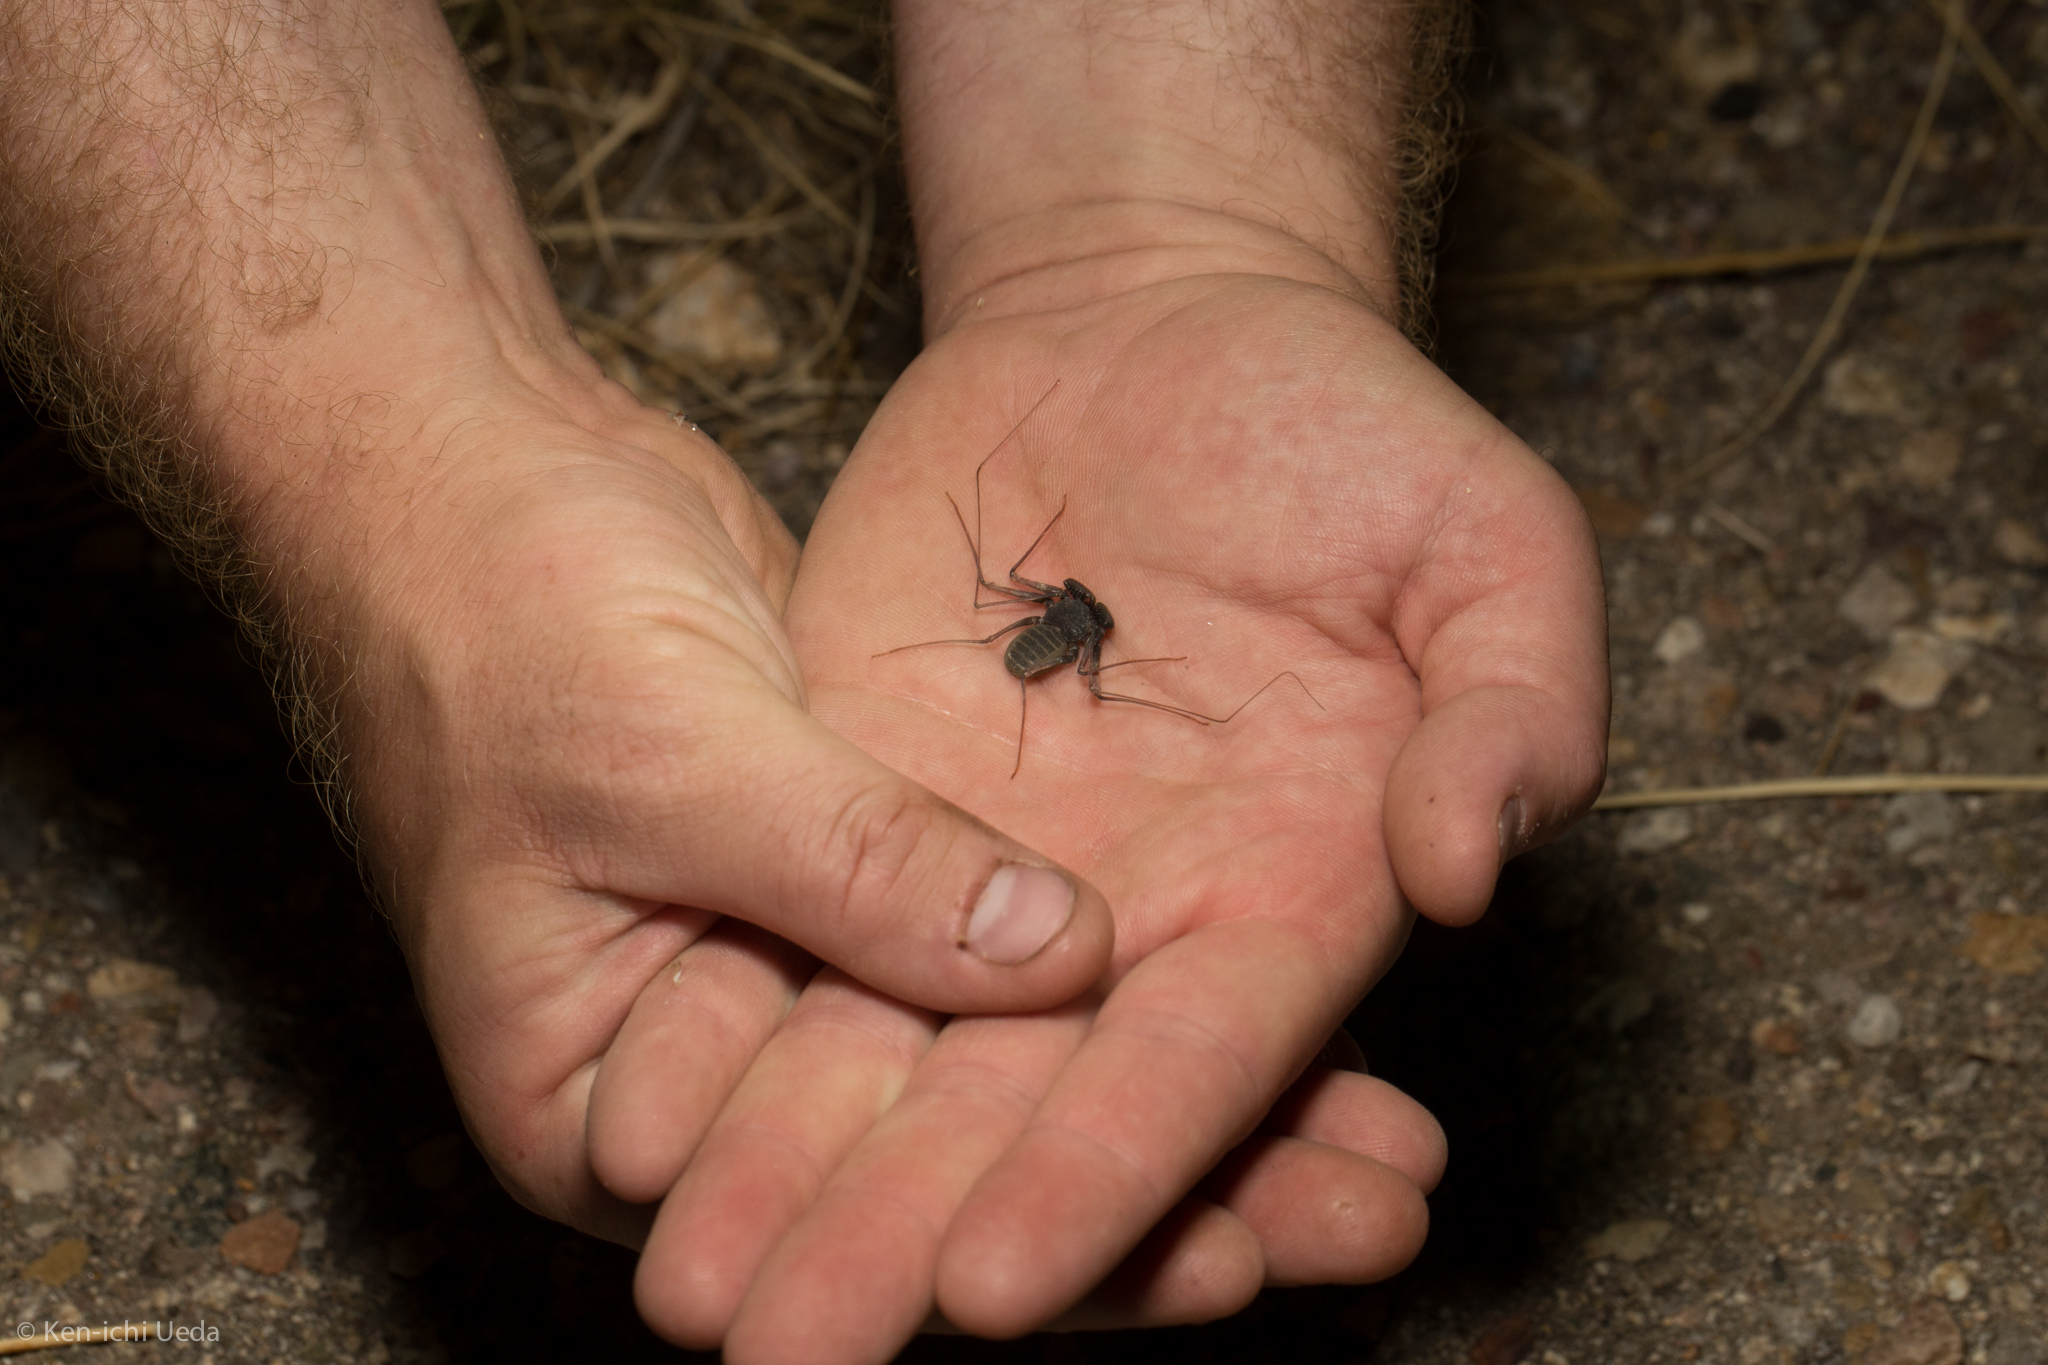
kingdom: Animalia
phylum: Arthropoda
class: Arachnida
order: Amblypygi
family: Phrynidae
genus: Paraphrynus
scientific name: Paraphrynus carolynae
